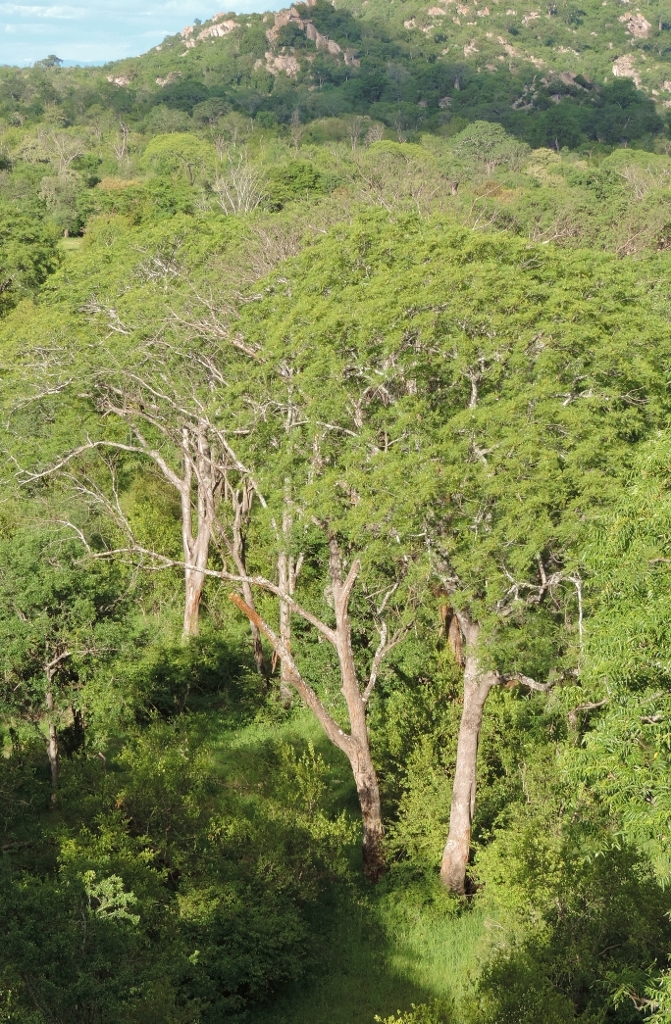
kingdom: Plantae
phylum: Tracheophyta
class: Magnoliopsida
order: Sapindales
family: Kirkiaceae
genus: Kirkia
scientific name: Kirkia acuminata
